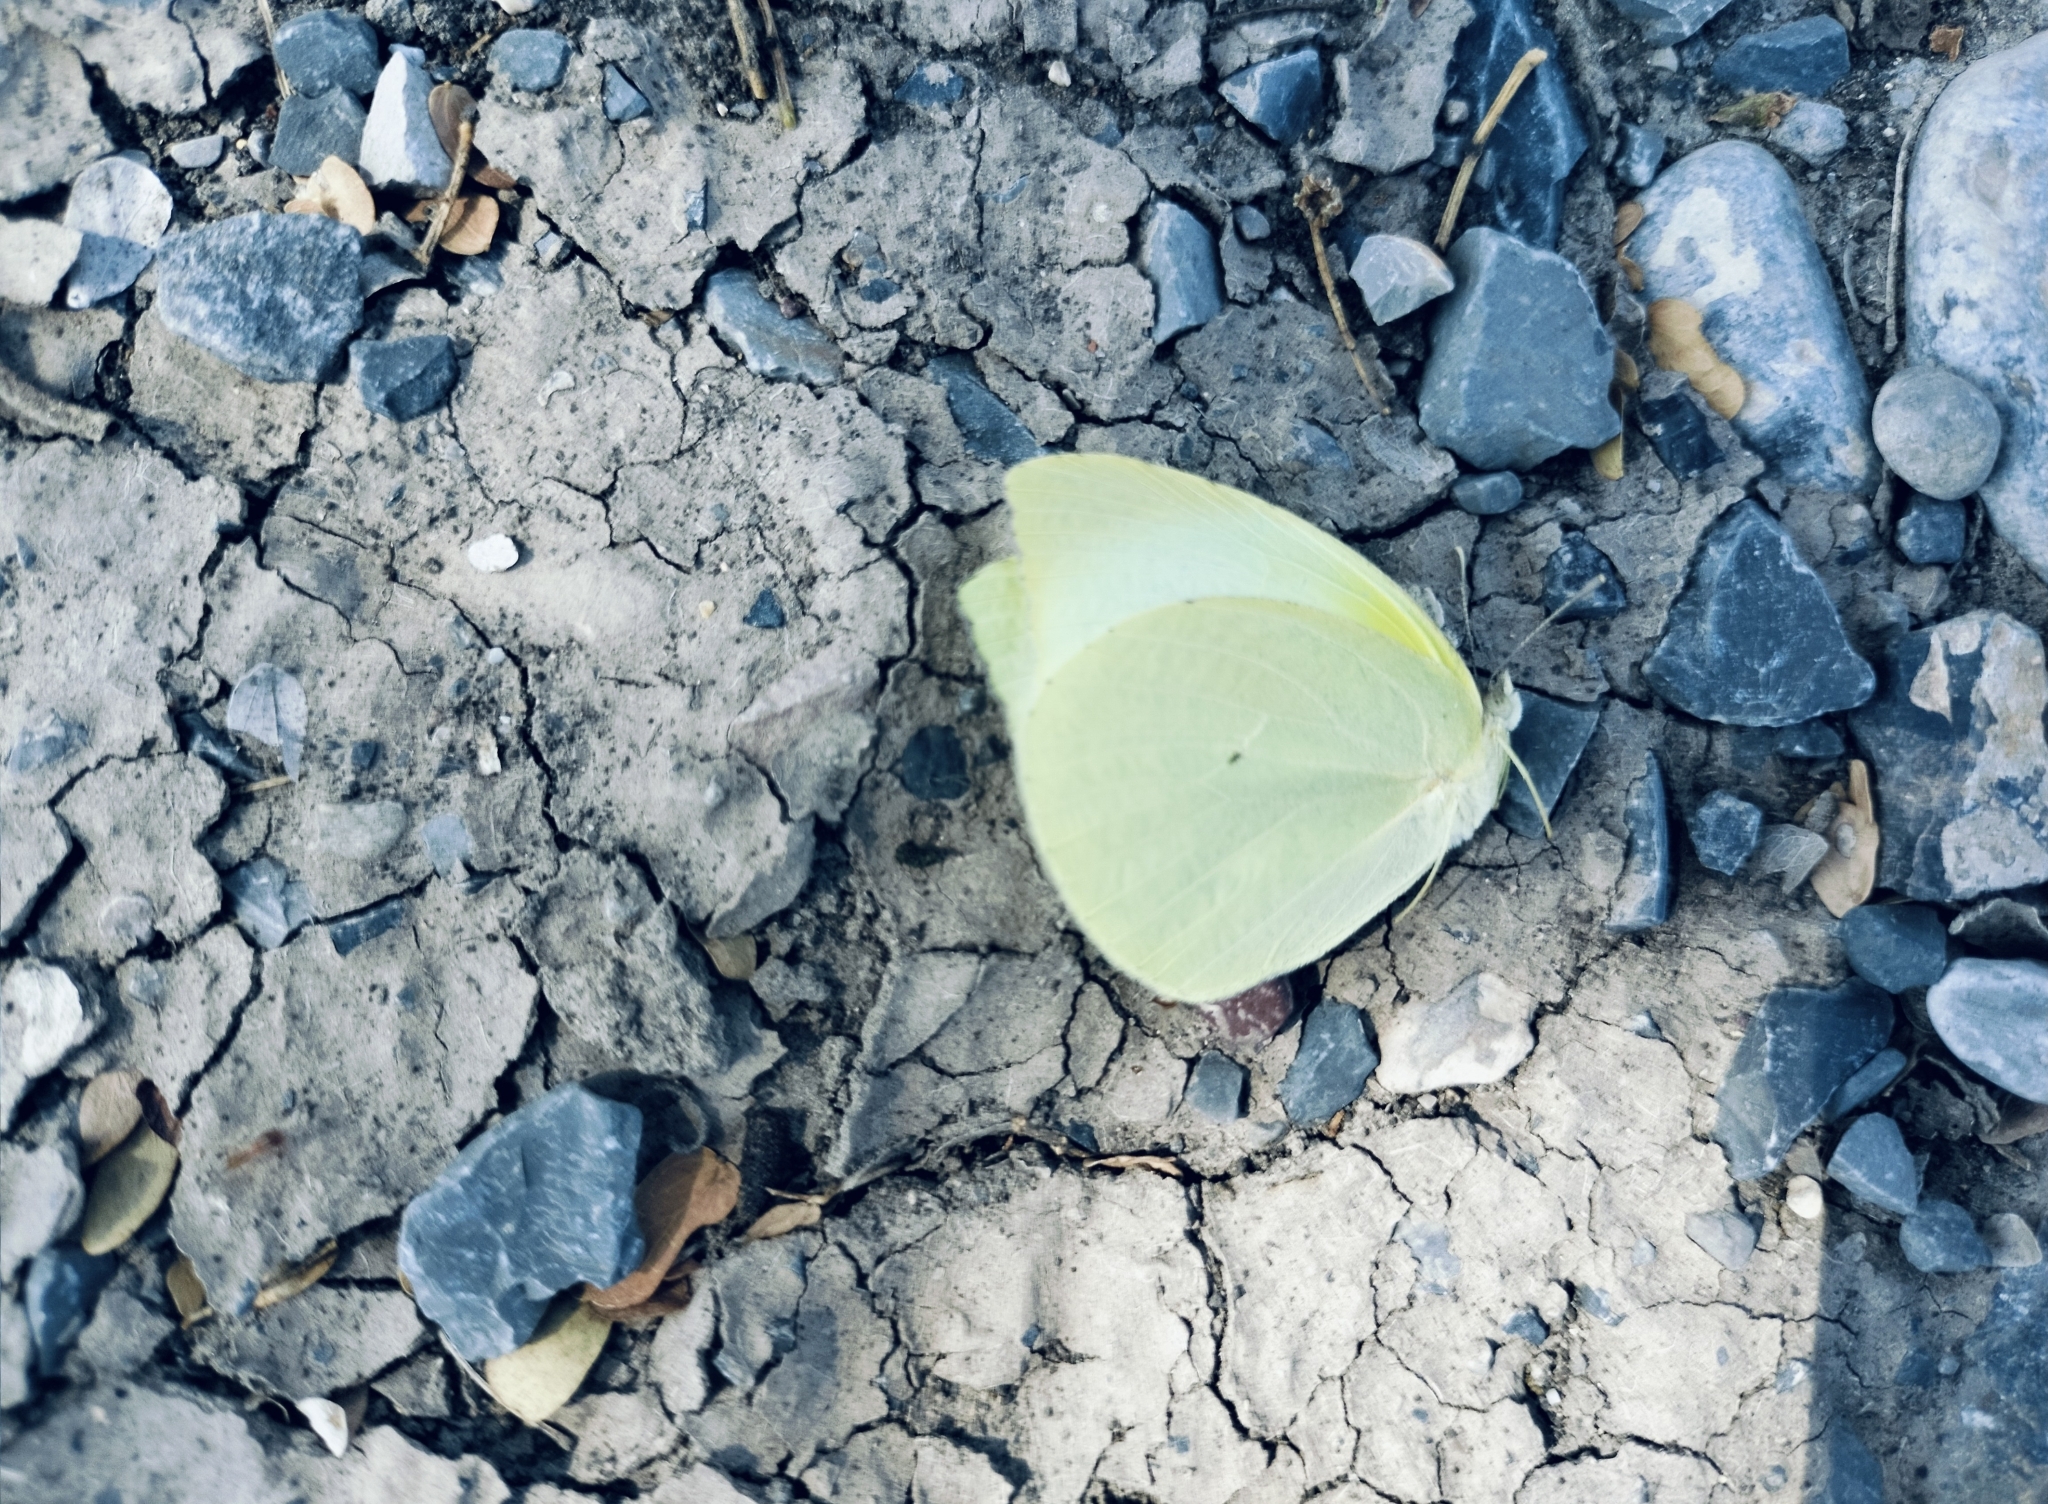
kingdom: Animalia
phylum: Arthropoda
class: Insecta
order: Lepidoptera
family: Pieridae
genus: Kricogonia
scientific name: Kricogonia lyside
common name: Guayacan sulphur,
